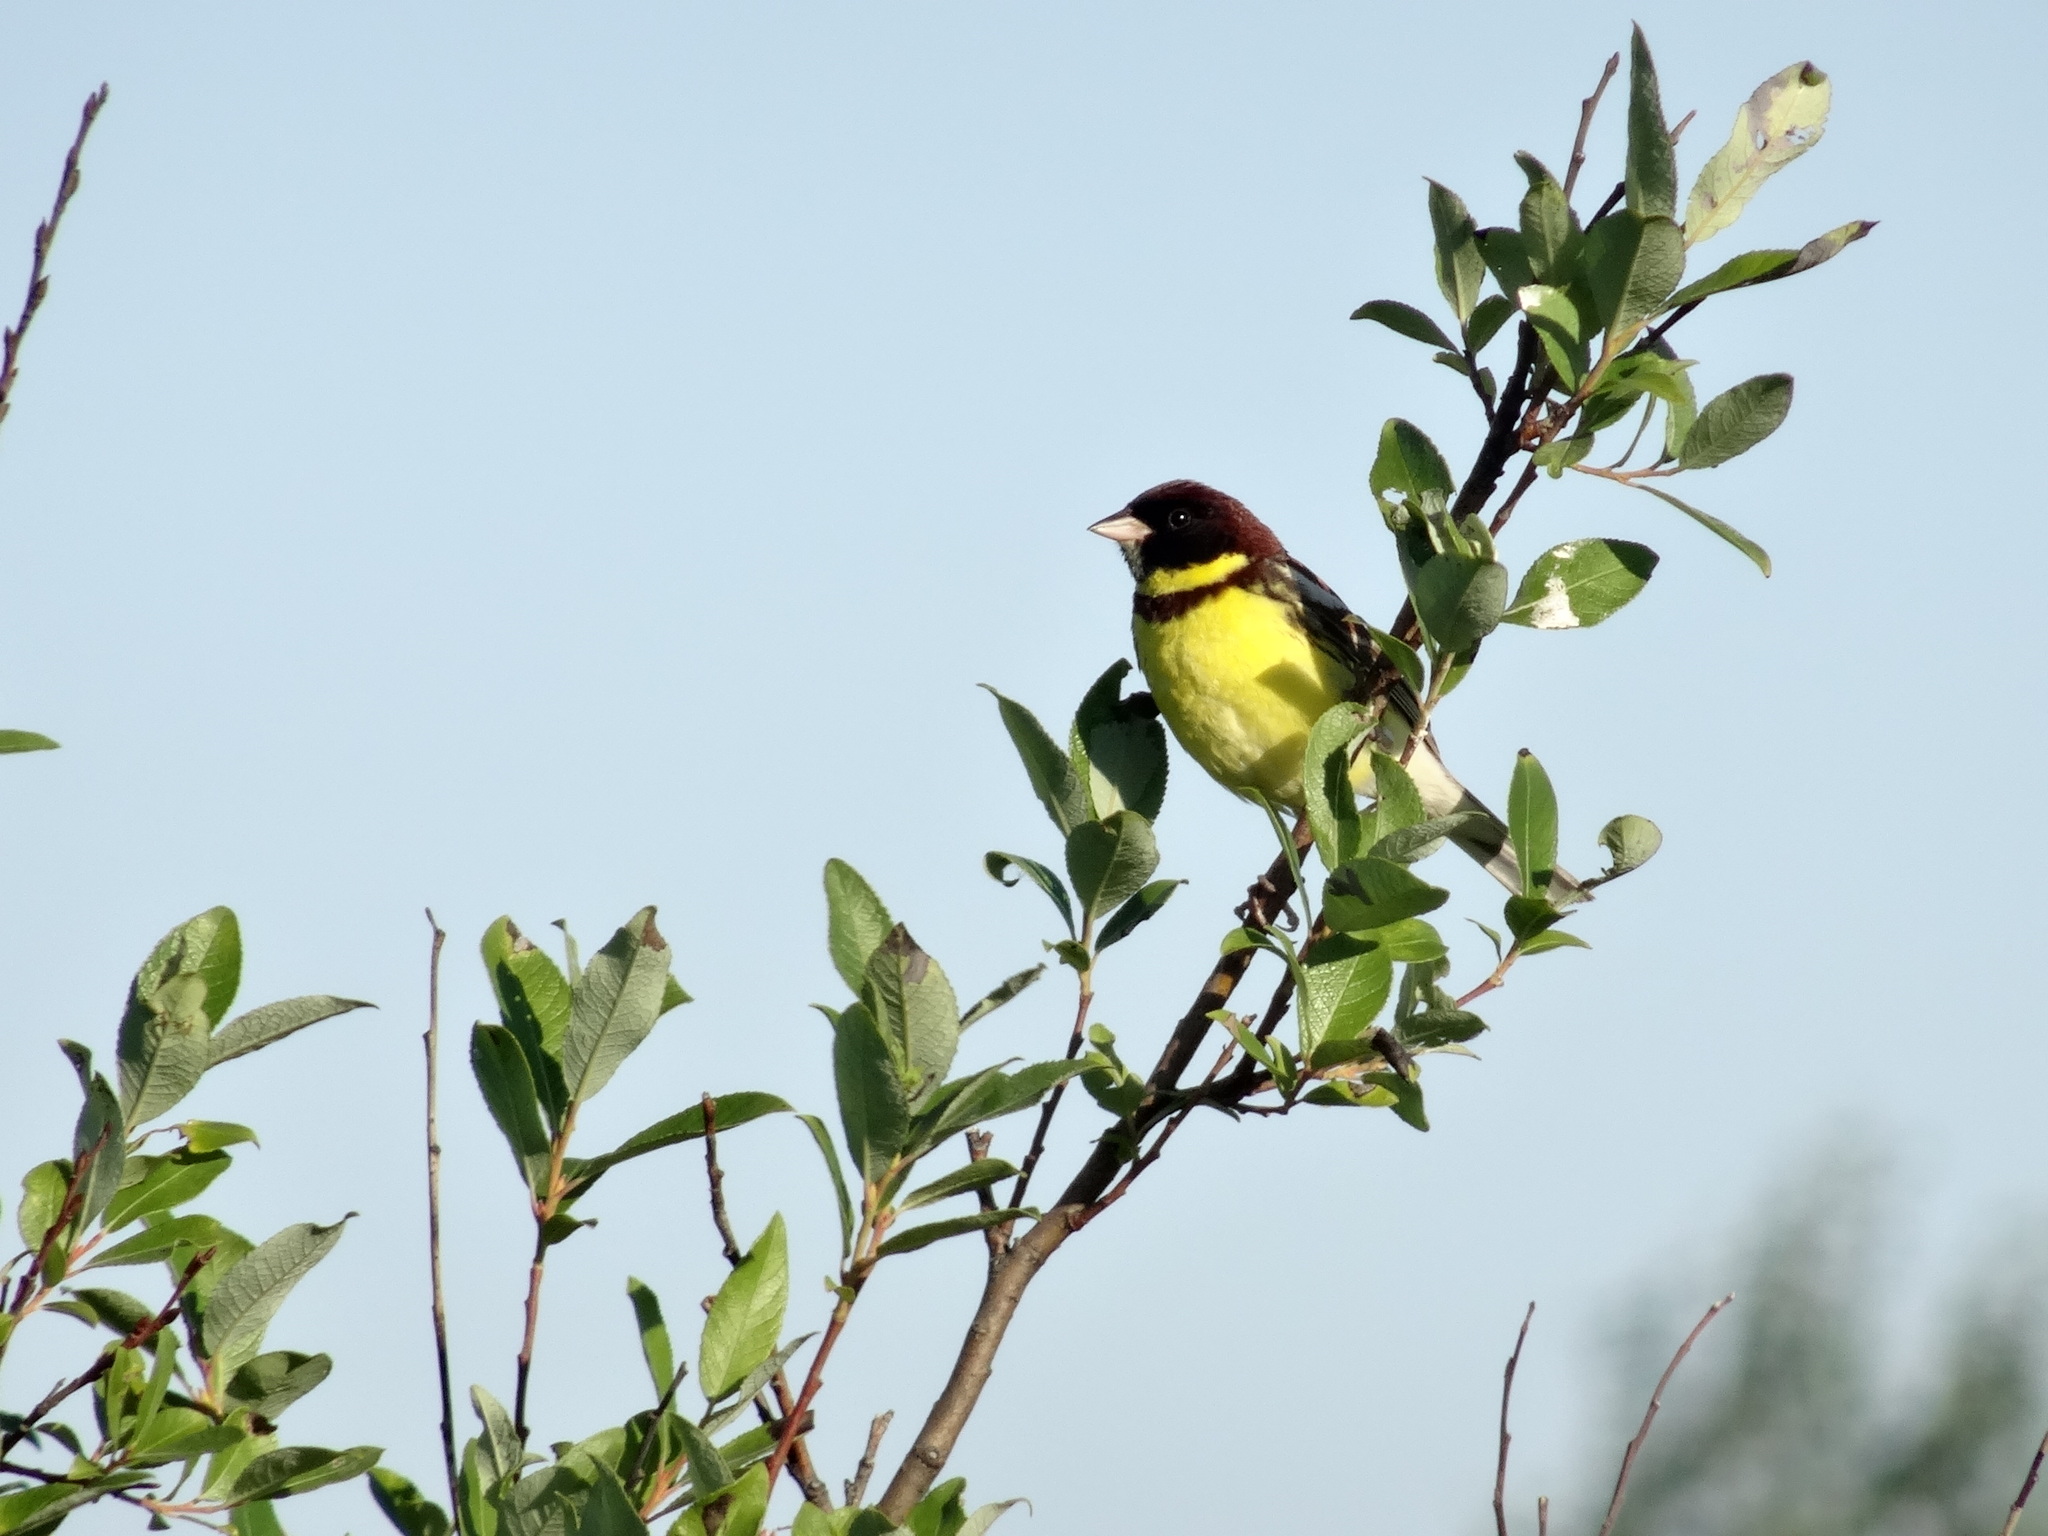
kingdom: Animalia
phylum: Chordata
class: Aves
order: Passeriformes
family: Emberizidae
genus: Emberiza
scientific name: Emberiza aureola
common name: Yellow-breasted bunting
